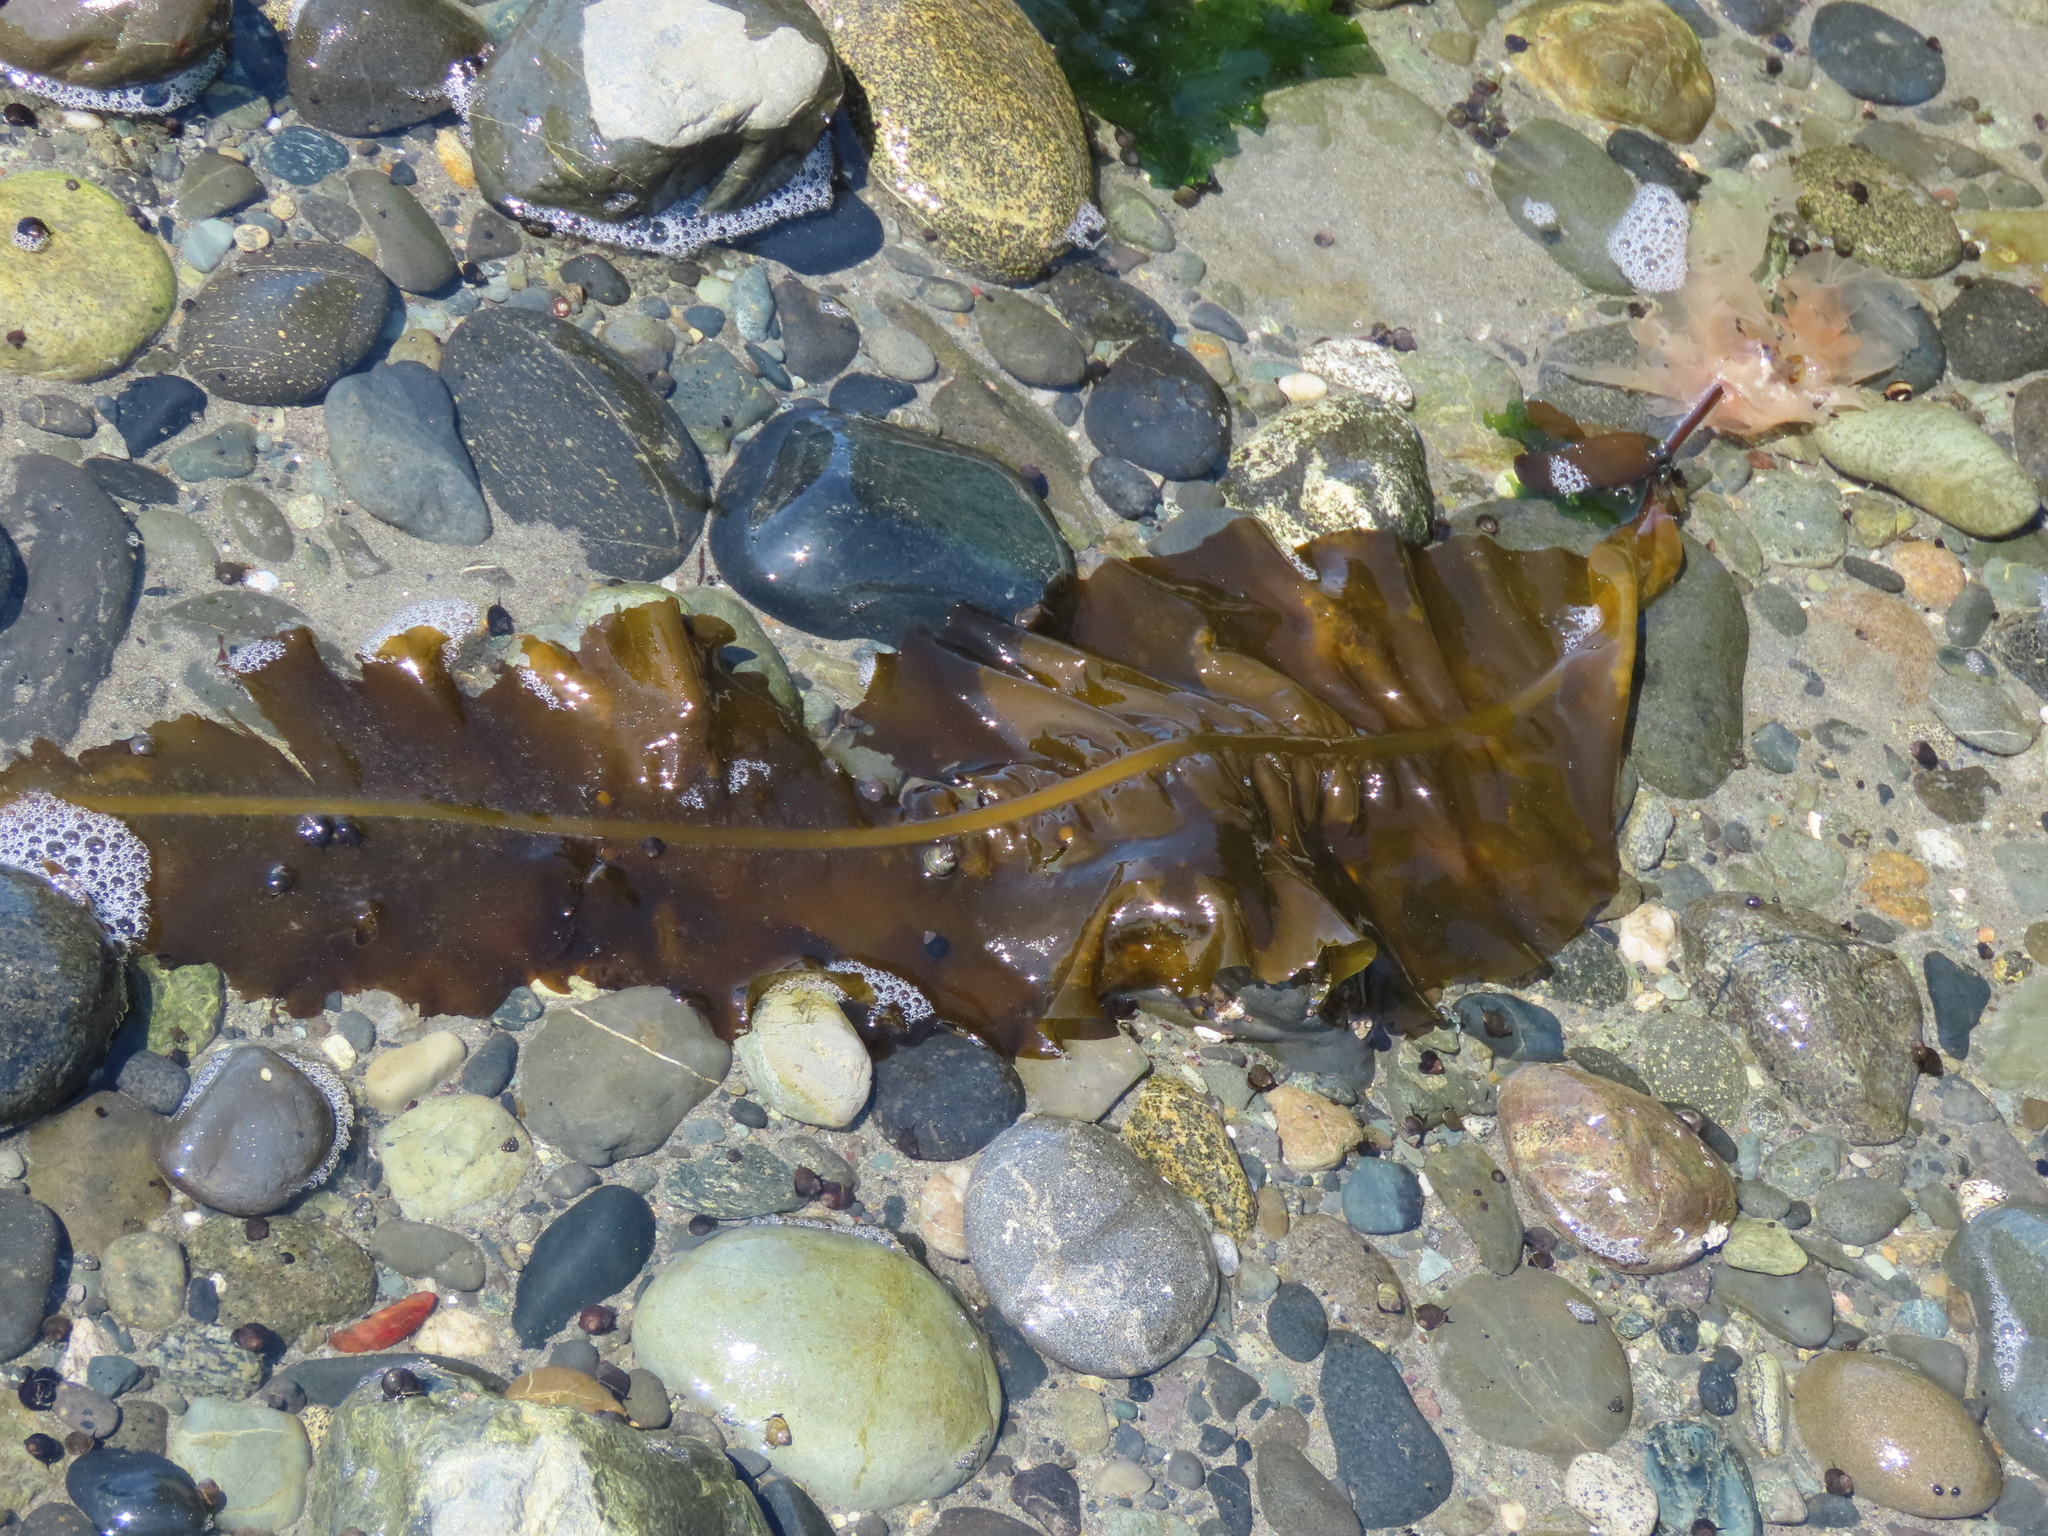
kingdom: Chromista
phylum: Ochrophyta
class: Phaeophyceae
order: Laminariales
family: Alariaceae
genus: Alaria
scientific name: Alaria marginata
